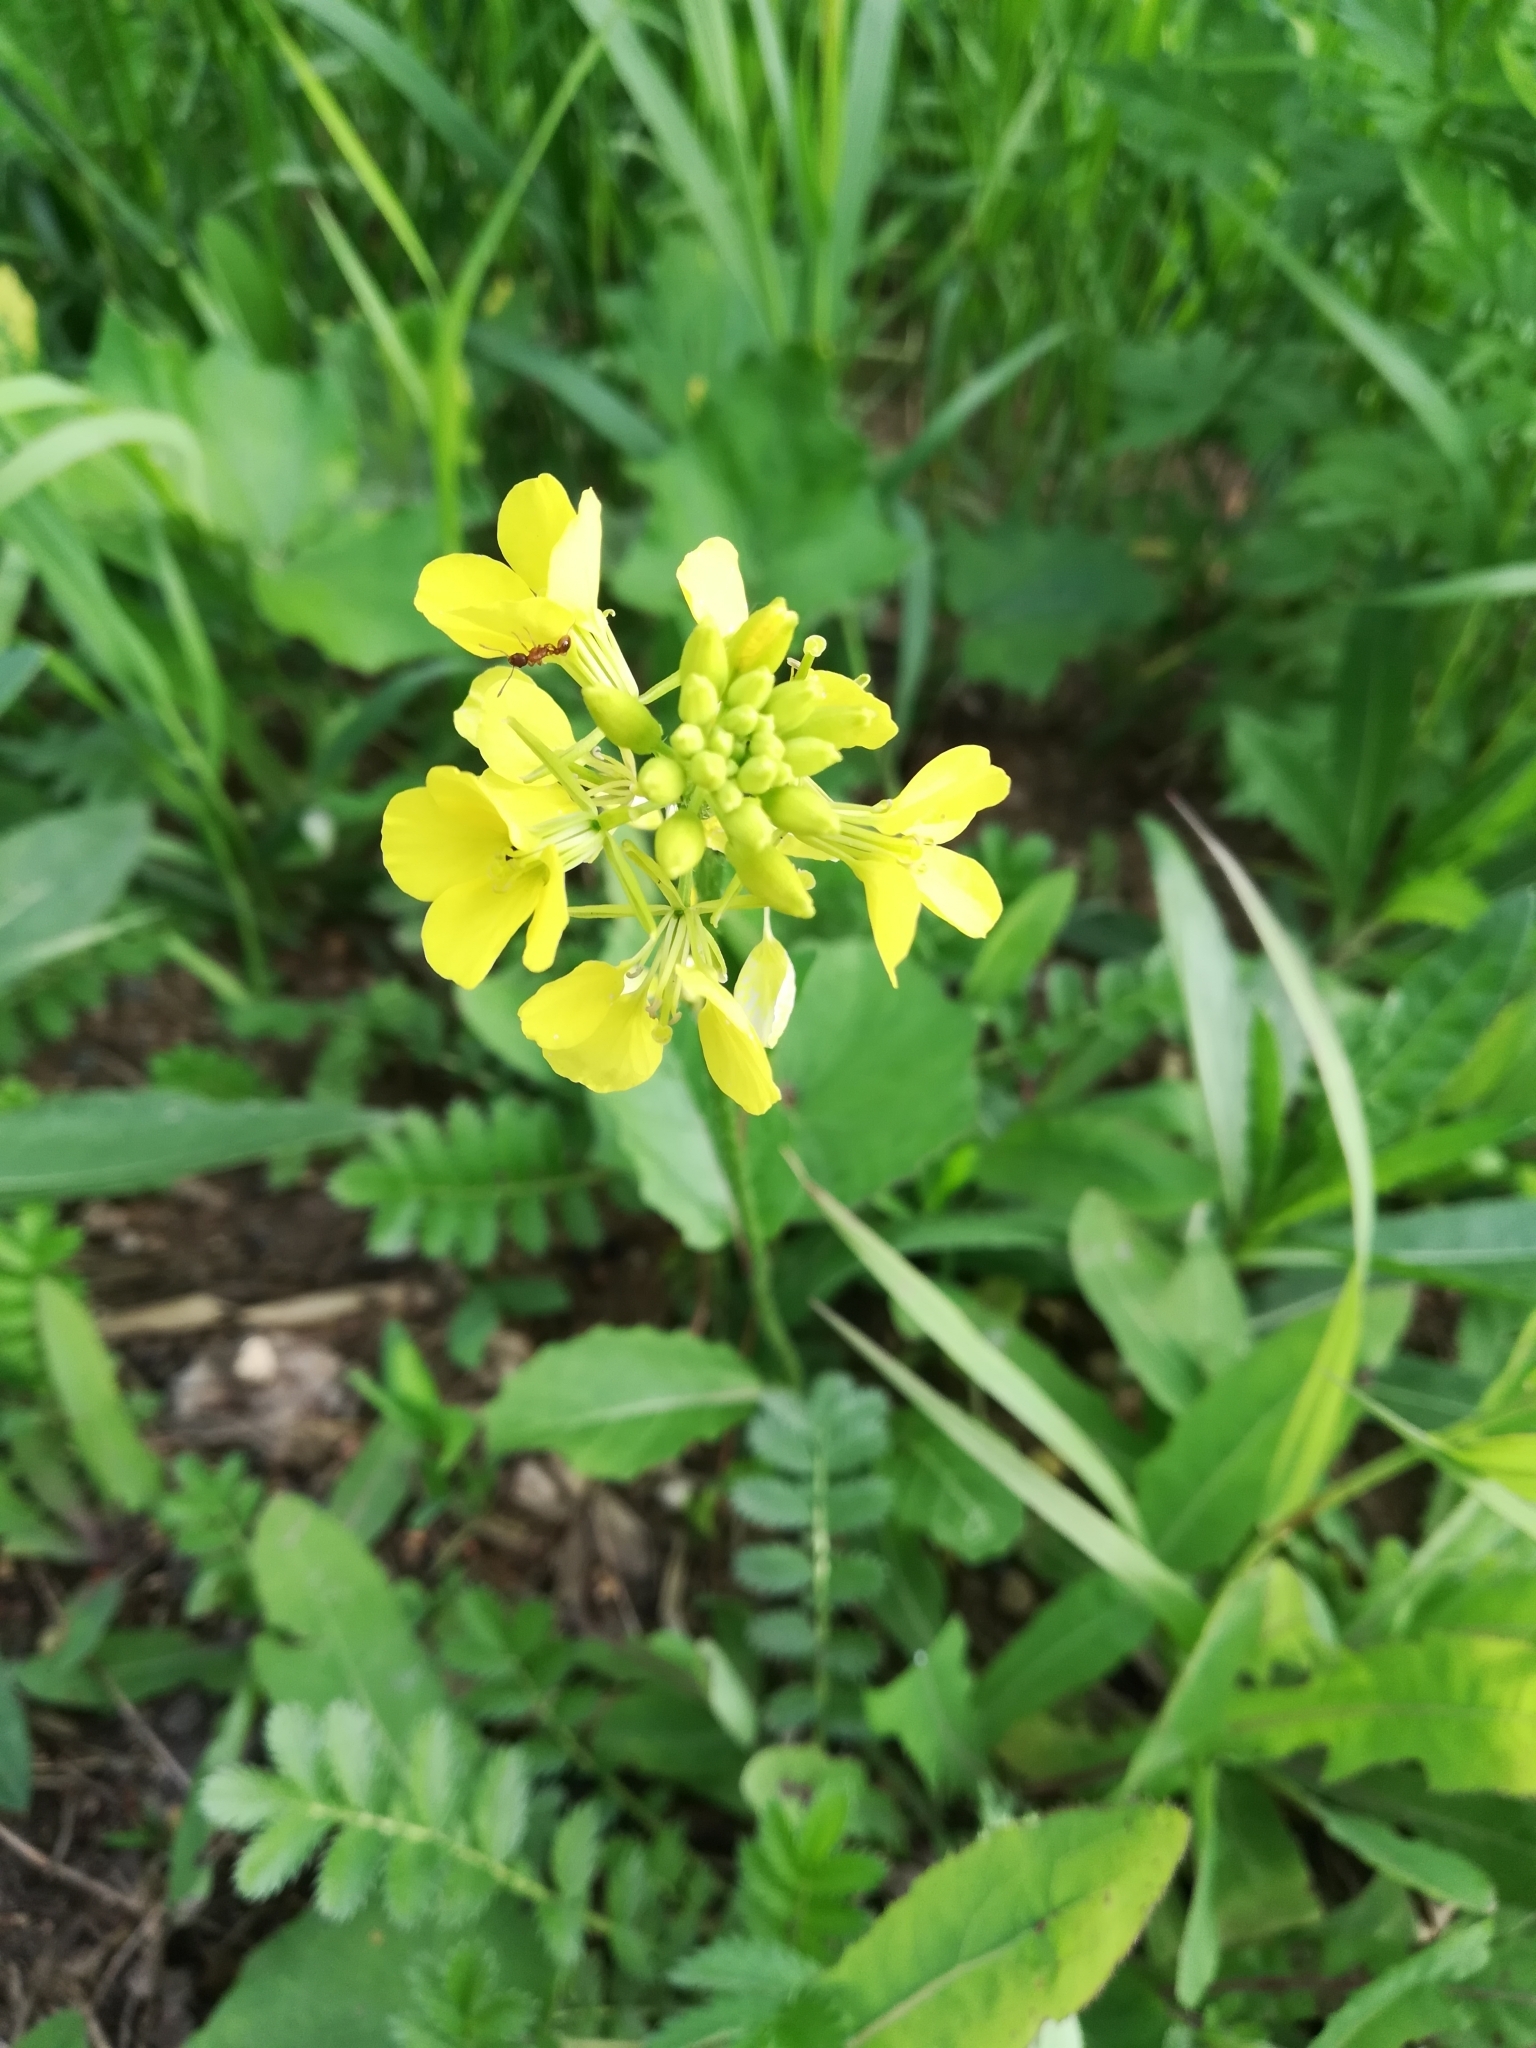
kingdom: Plantae
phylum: Tracheophyta
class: Magnoliopsida
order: Brassicales
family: Brassicaceae
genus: Sinapis
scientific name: Sinapis arvensis
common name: Charlock
